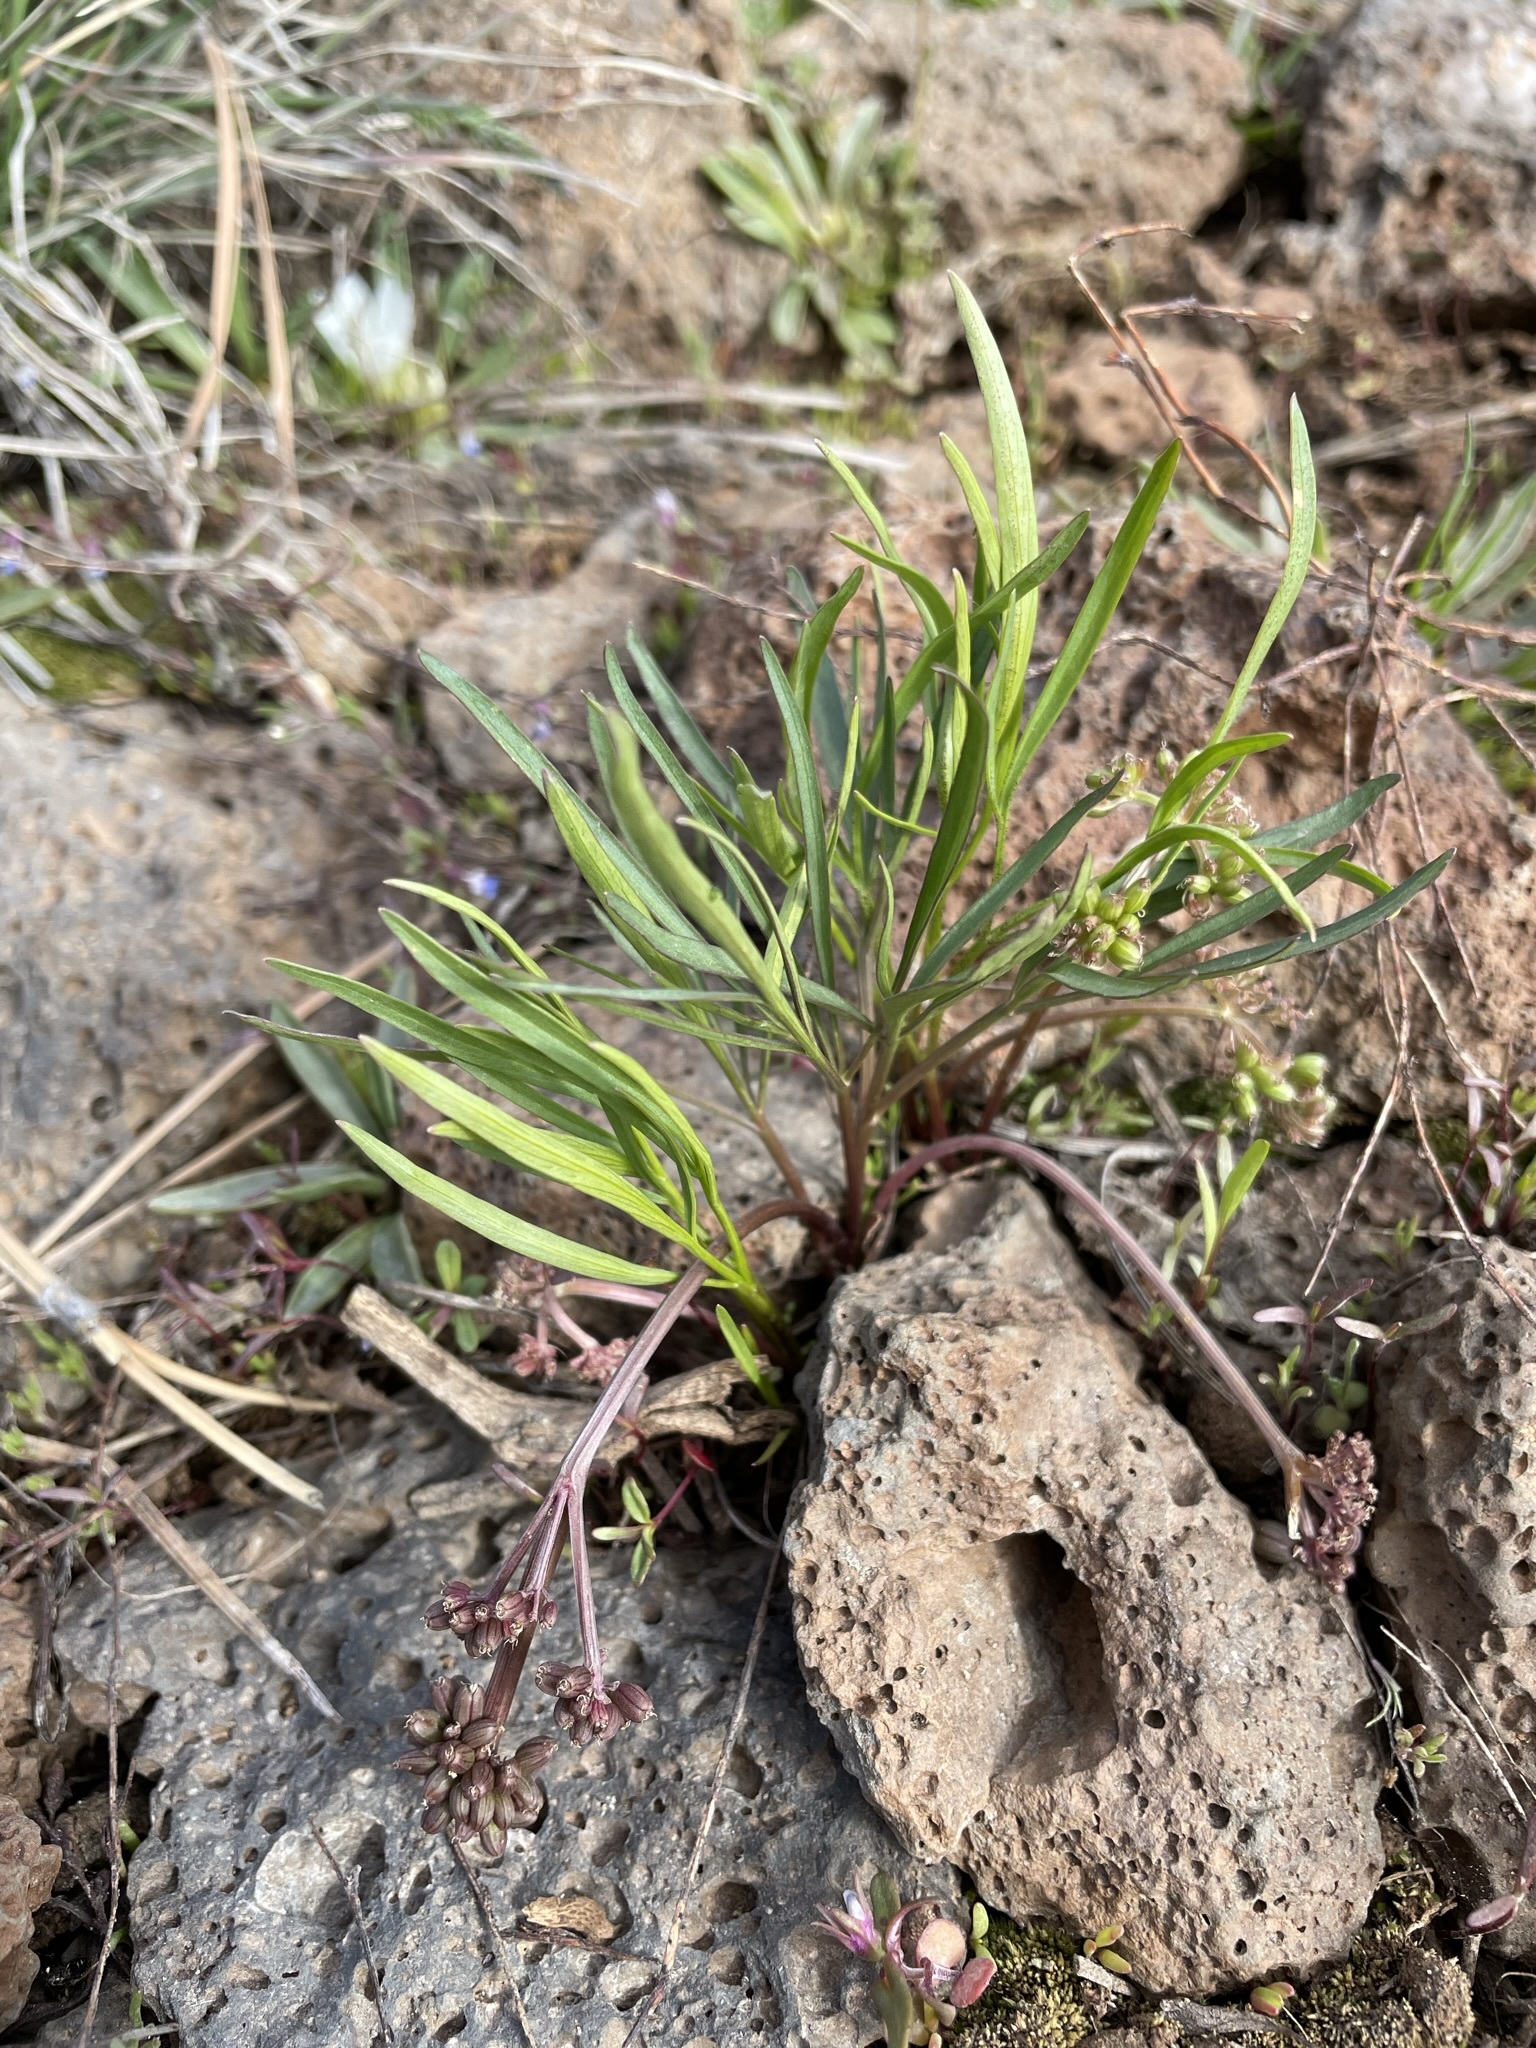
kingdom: Plantae
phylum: Tracheophyta
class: Magnoliopsida
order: Apiales
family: Apiaceae
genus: Lomatium
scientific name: Lomatium linearifolium
